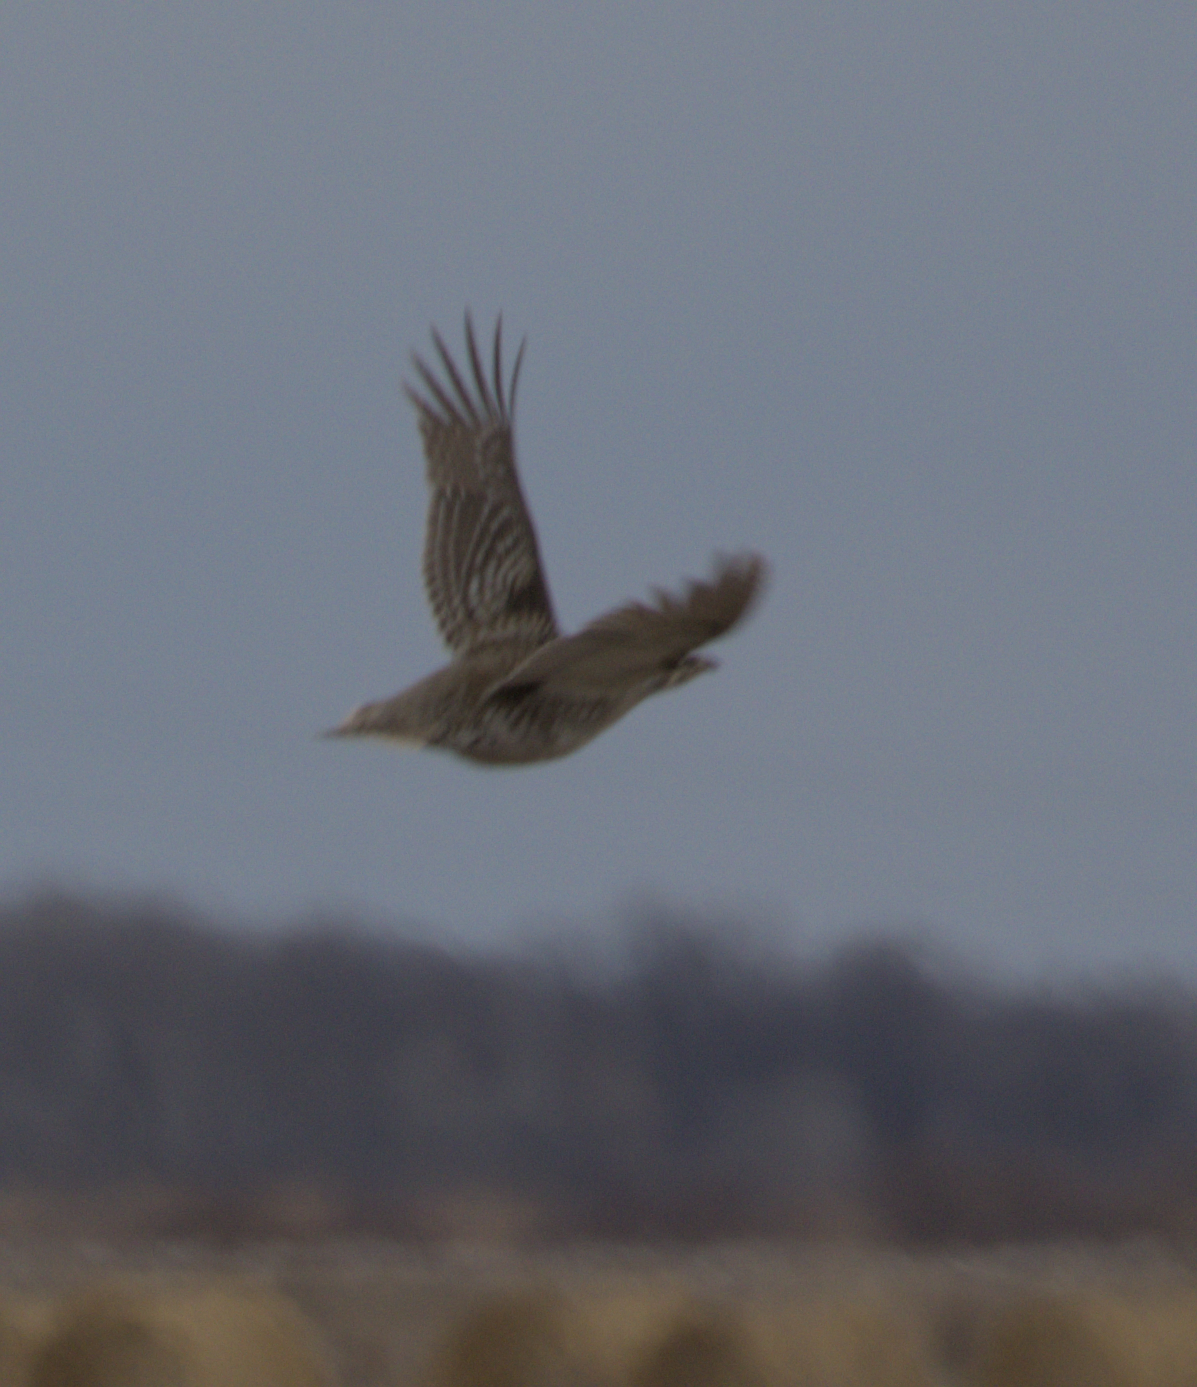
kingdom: Animalia
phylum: Chordata
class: Aves
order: Galliformes
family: Phasianidae
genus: Tympanuchus
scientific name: Tympanuchus phasianellus
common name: Sharp-tailed grouse
